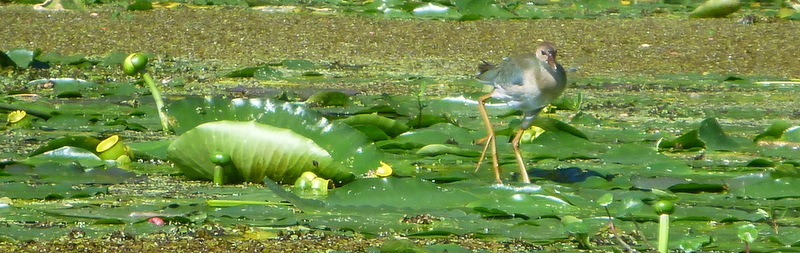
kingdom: Animalia
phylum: Chordata
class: Aves
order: Gruiformes
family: Rallidae
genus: Porphyrio
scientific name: Porphyrio martinica
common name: Purple gallinule
